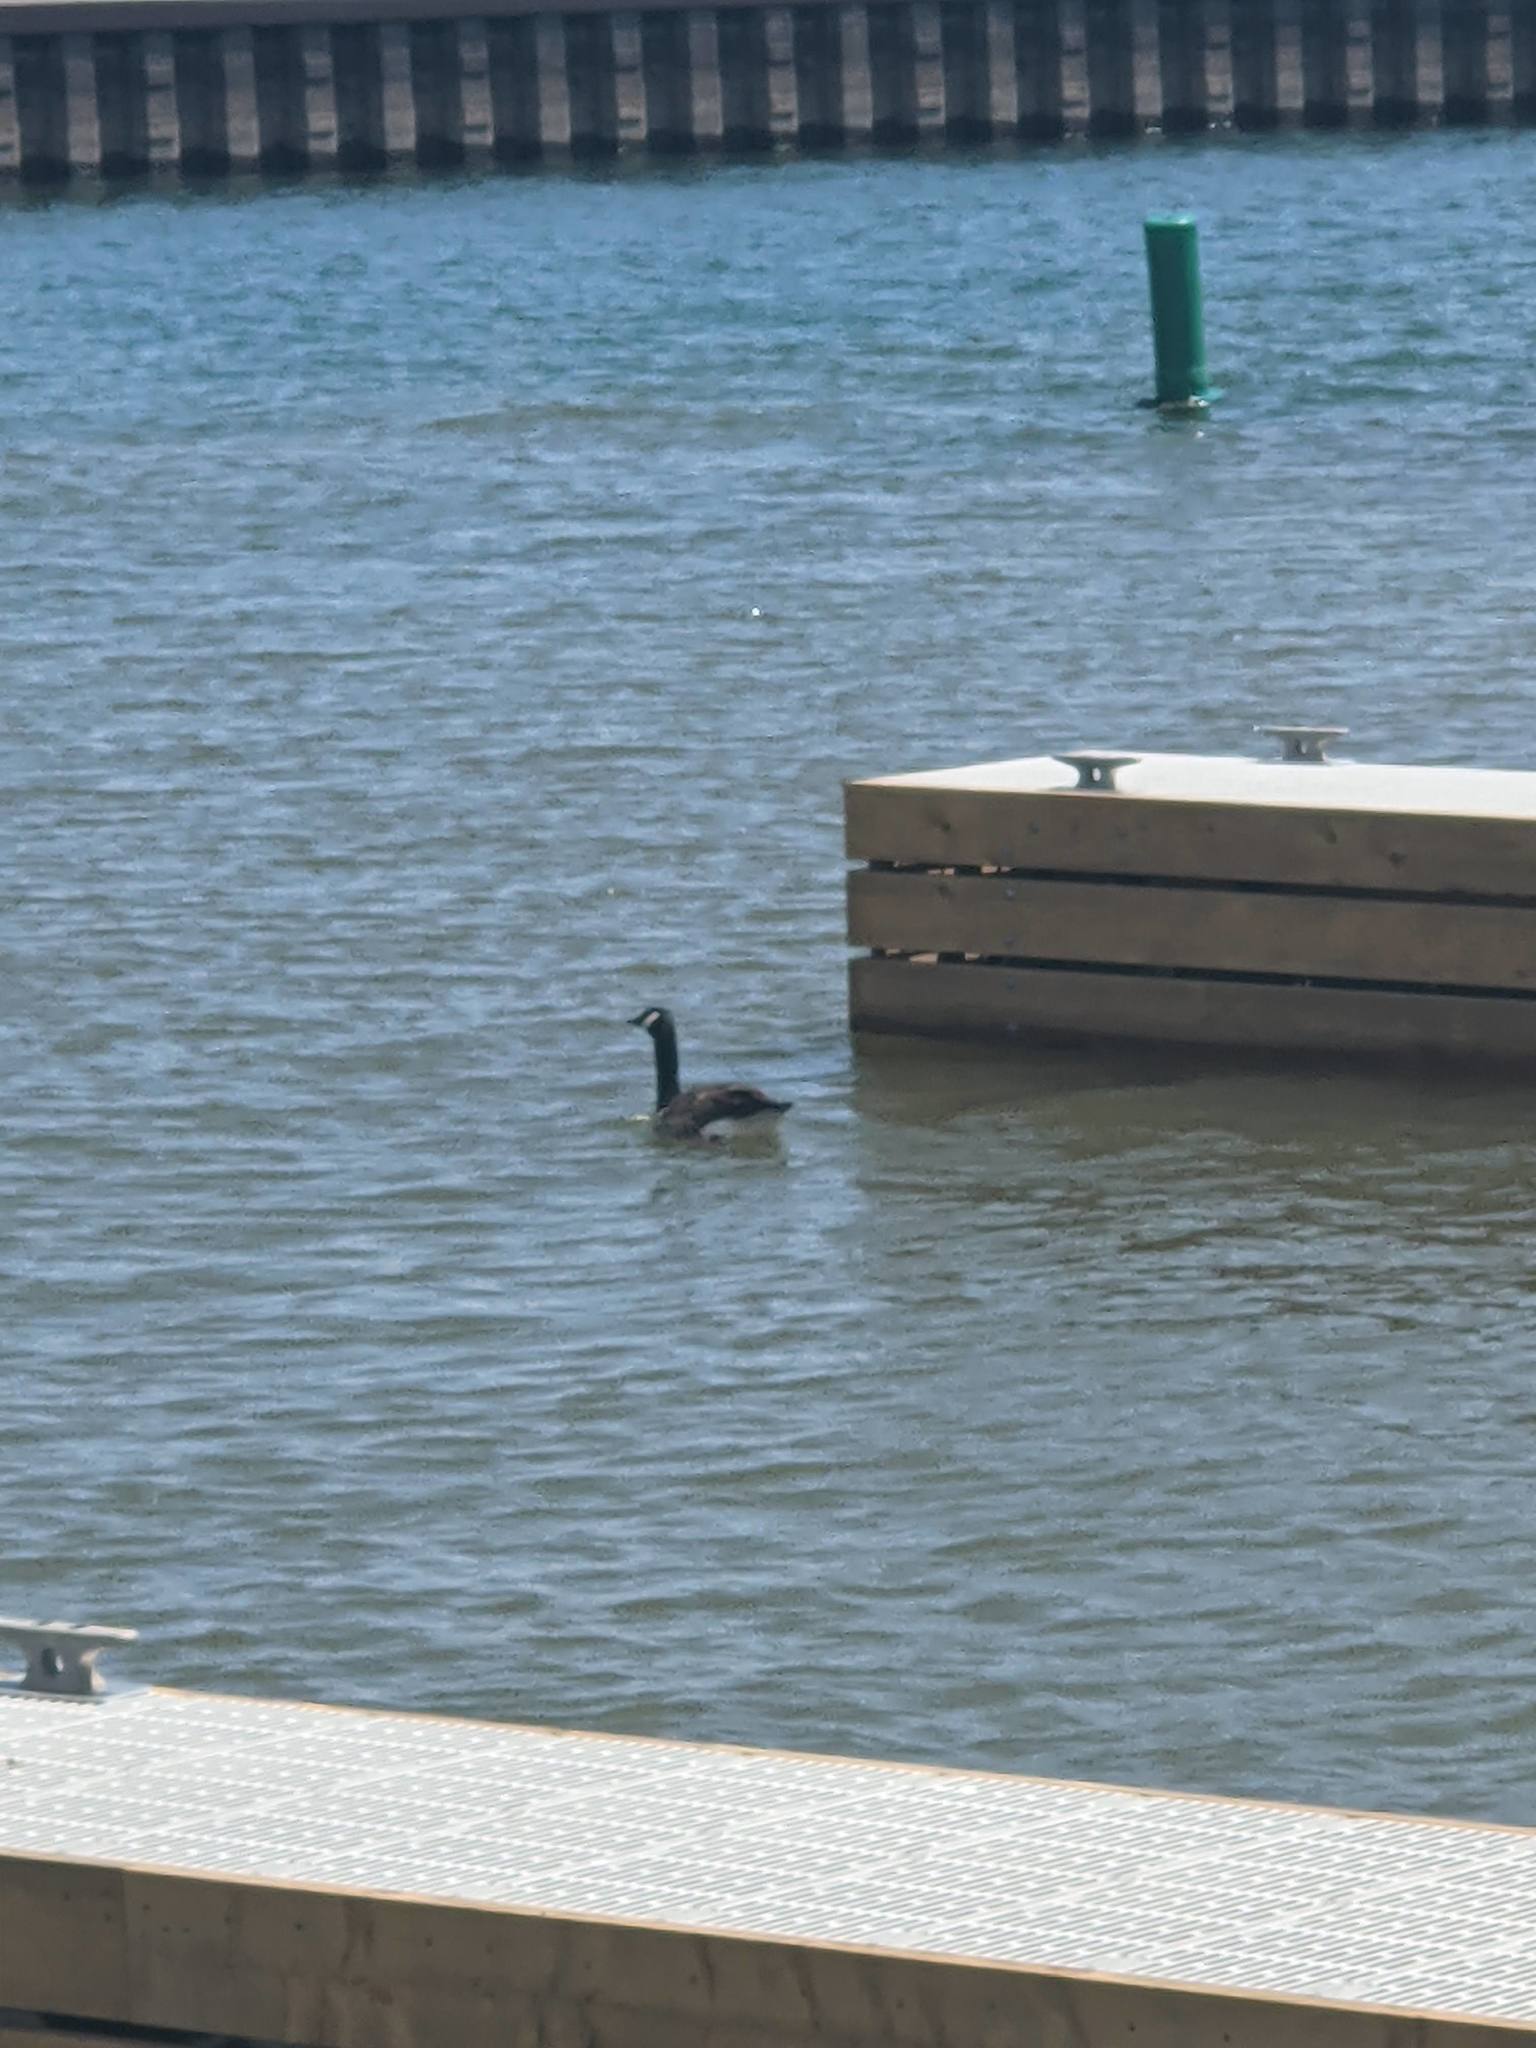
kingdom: Animalia
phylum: Chordata
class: Aves
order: Anseriformes
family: Anatidae
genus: Branta
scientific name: Branta canadensis
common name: Canada goose
